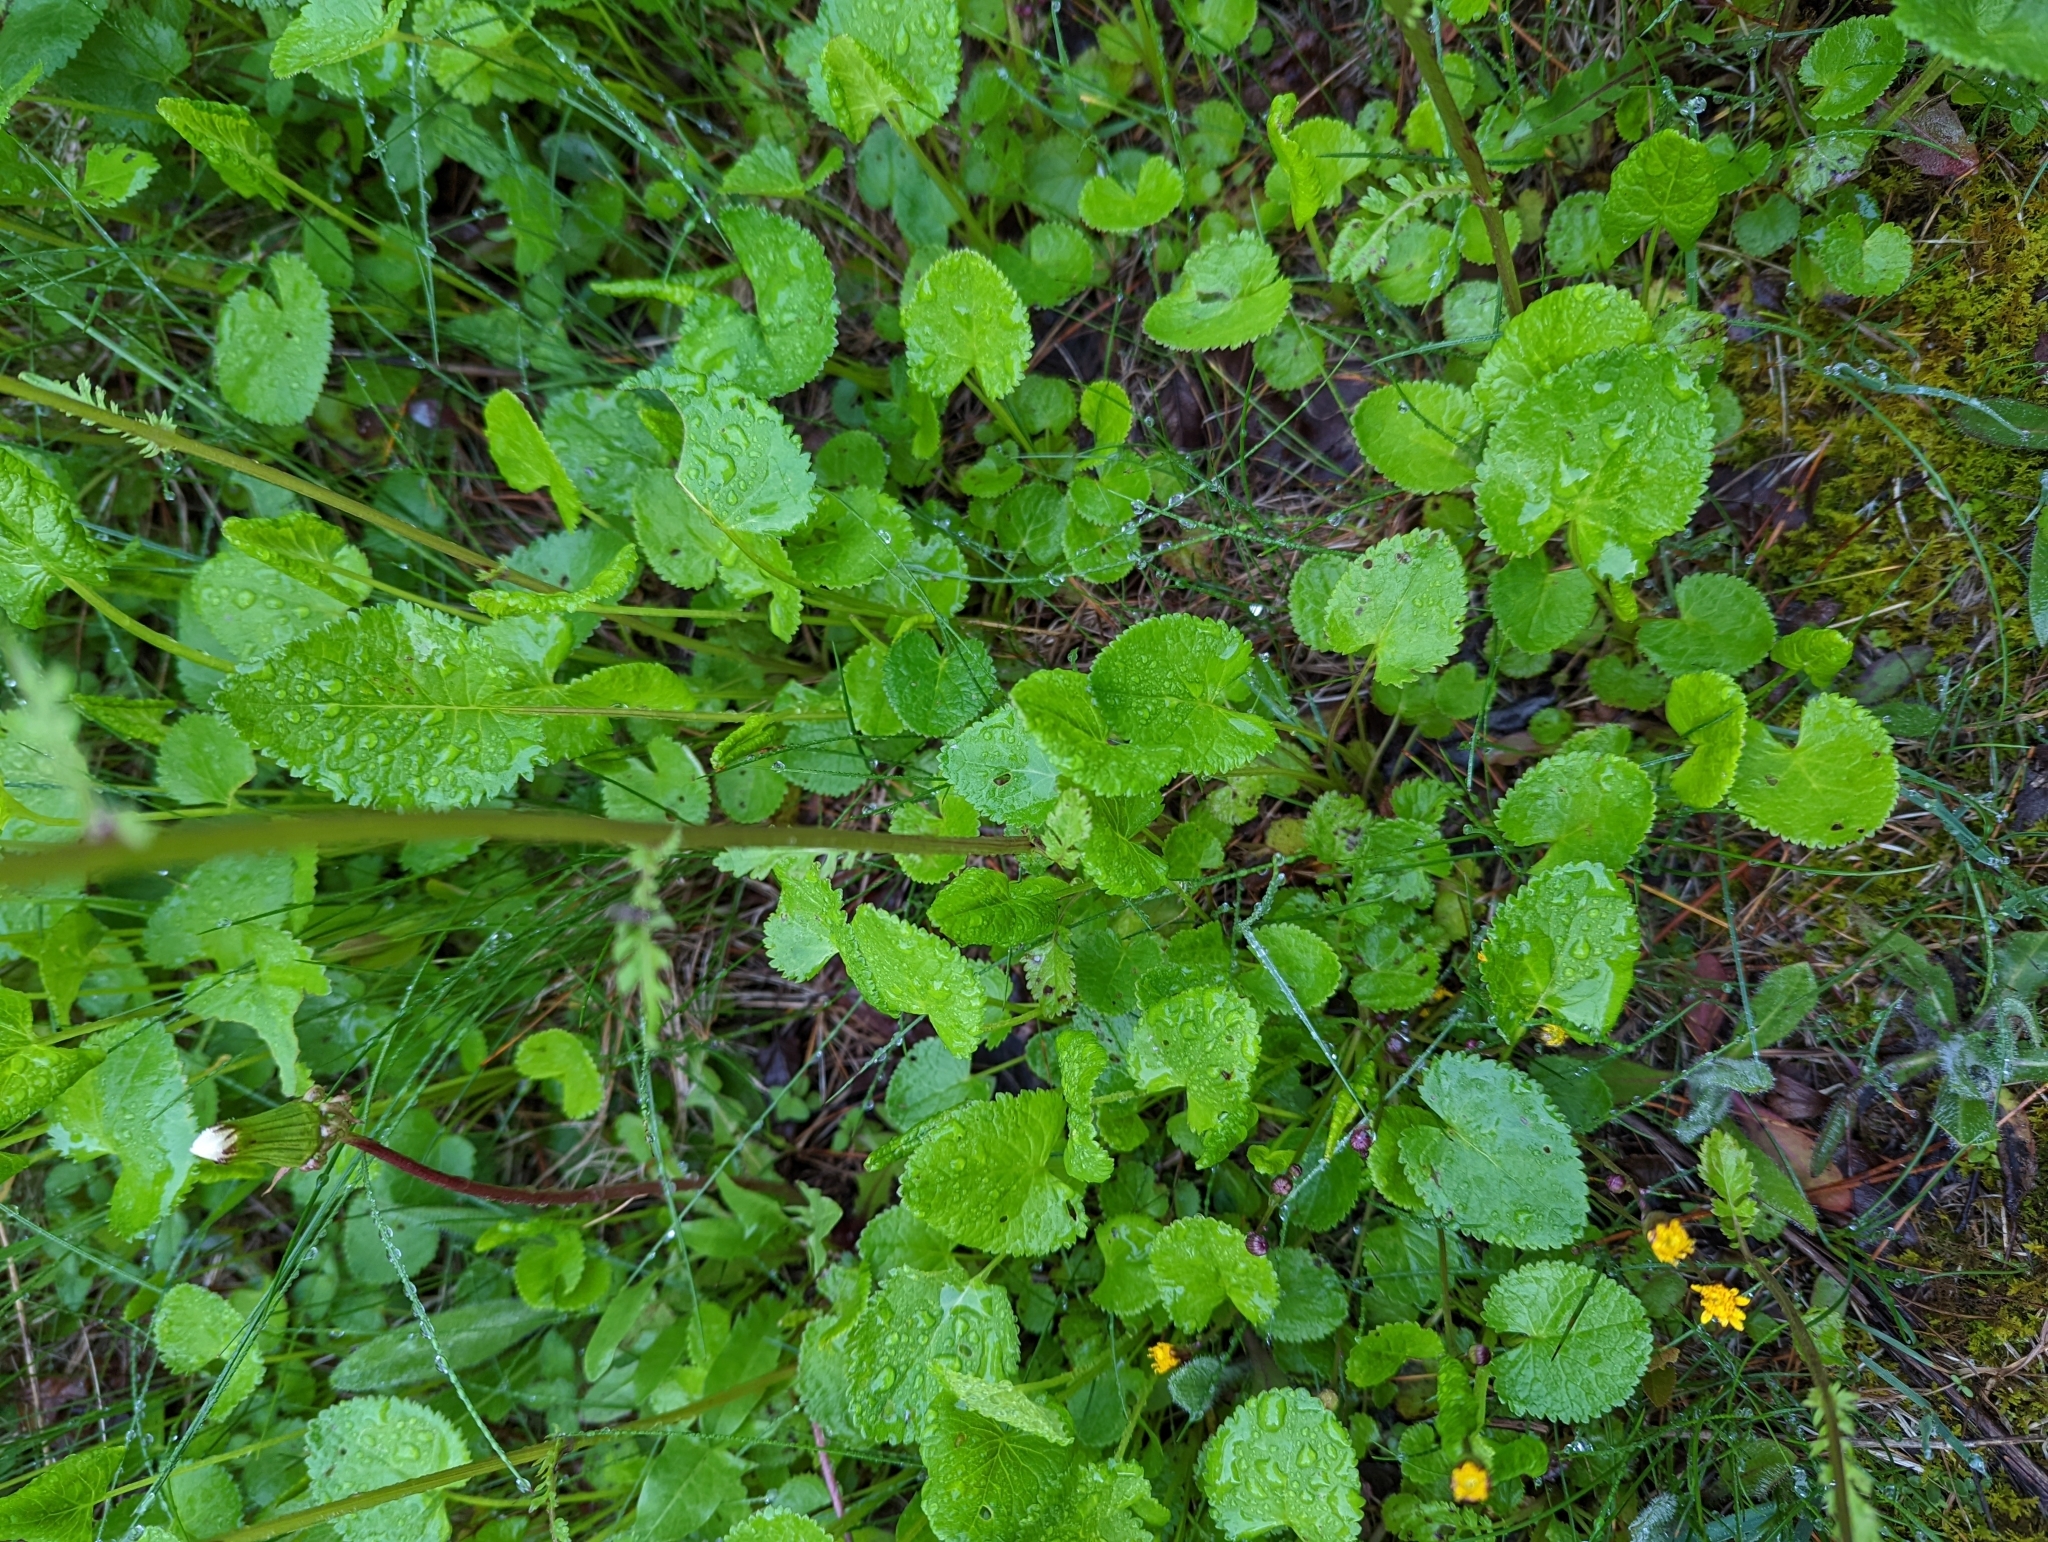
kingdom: Plantae
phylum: Tracheophyta
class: Magnoliopsida
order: Asterales
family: Asteraceae
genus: Packera
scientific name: Packera aurea
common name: Golden groundsel
